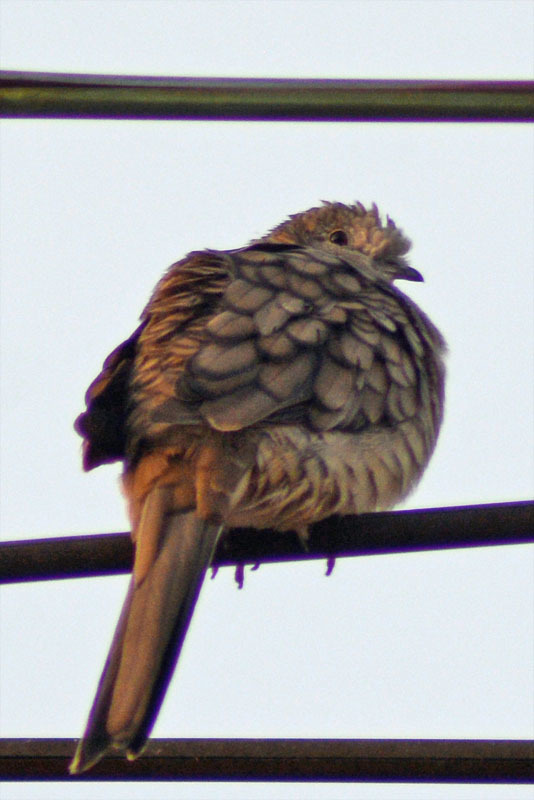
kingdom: Animalia
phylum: Chordata
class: Aves
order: Columbiformes
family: Columbidae
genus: Columbina
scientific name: Columbina inca
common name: Inca dove
